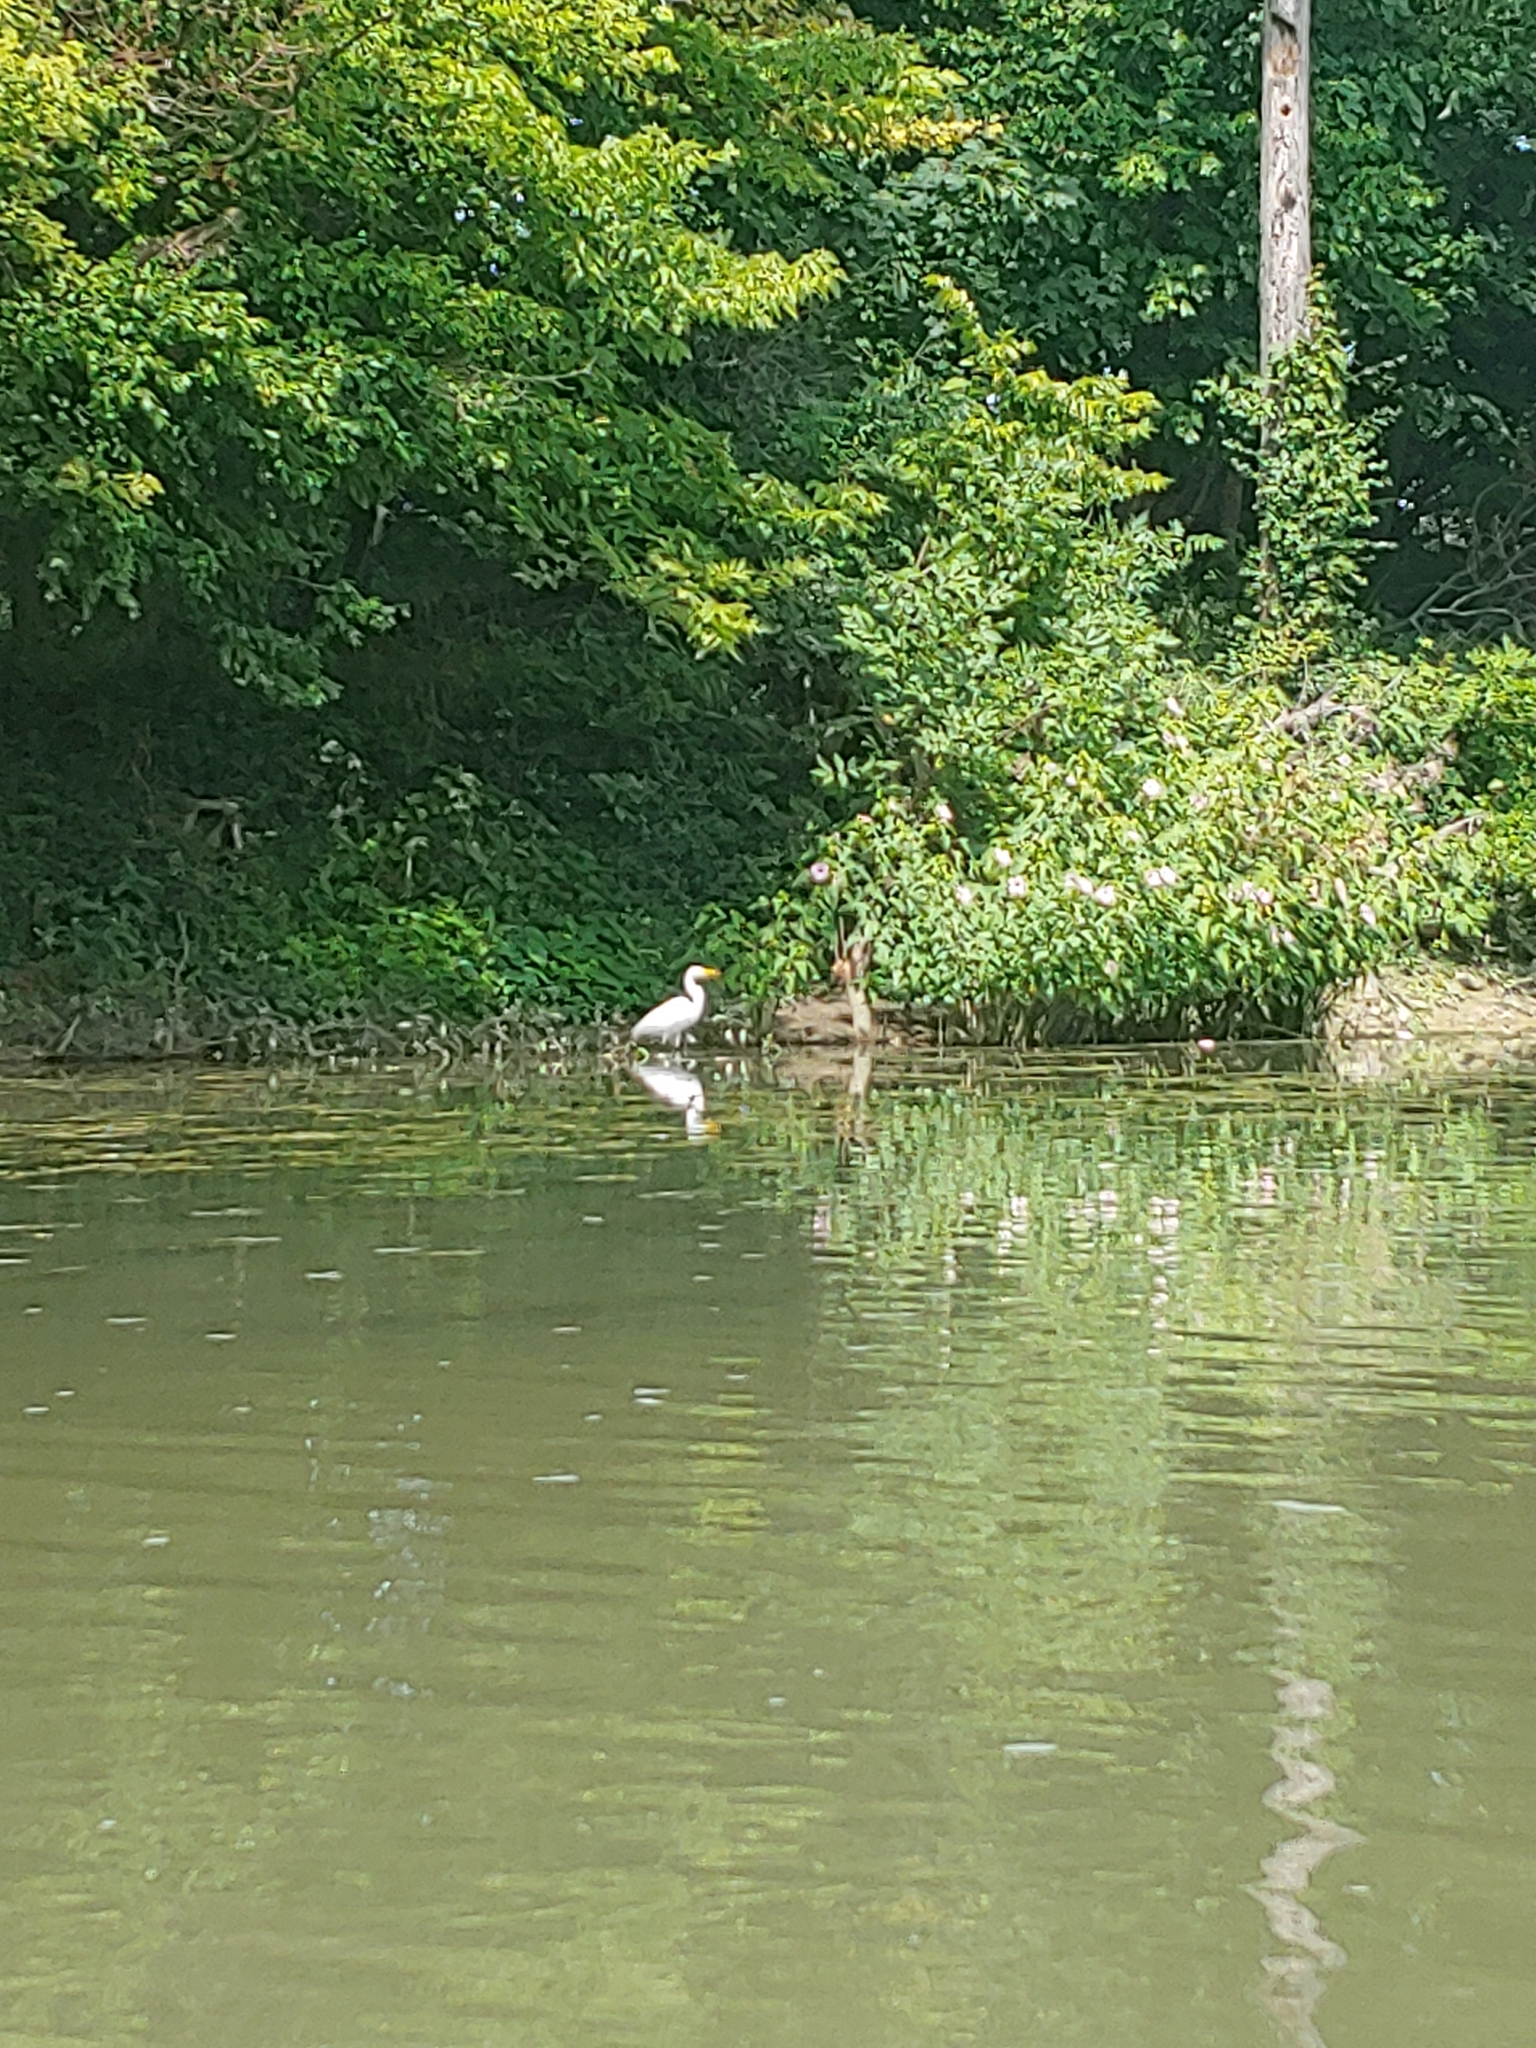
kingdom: Animalia
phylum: Chordata
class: Aves
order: Pelecaniformes
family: Ardeidae
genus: Ardea
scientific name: Ardea alba
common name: Great egret
